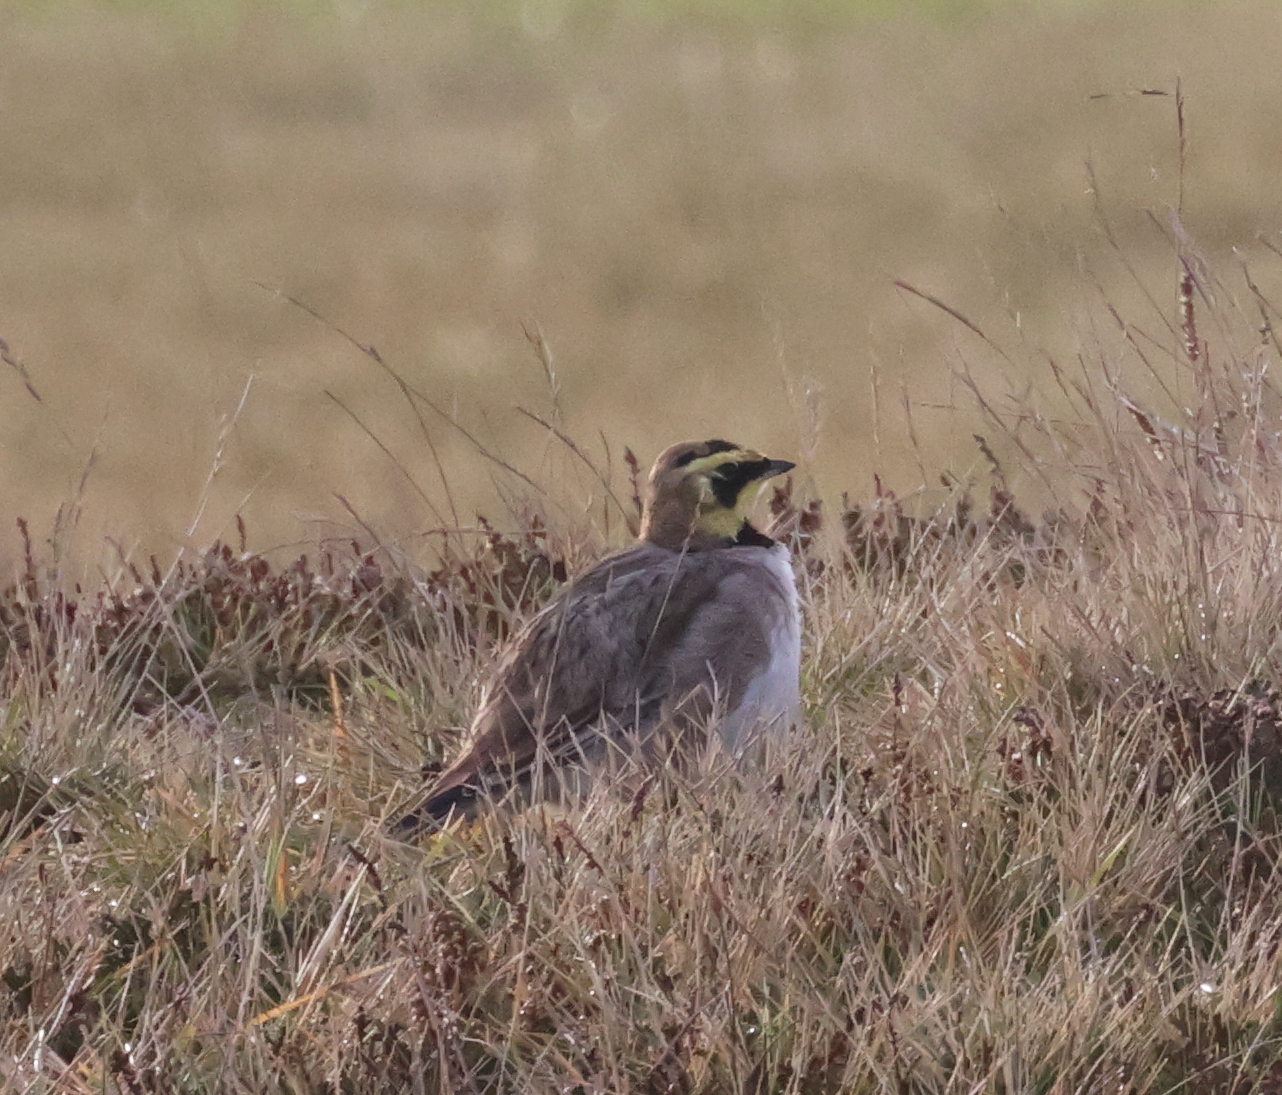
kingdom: Animalia
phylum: Chordata
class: Aves
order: Passeriformes
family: Alaudidae
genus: Eremophila
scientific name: Eremophila alpestris
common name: Horned lark
